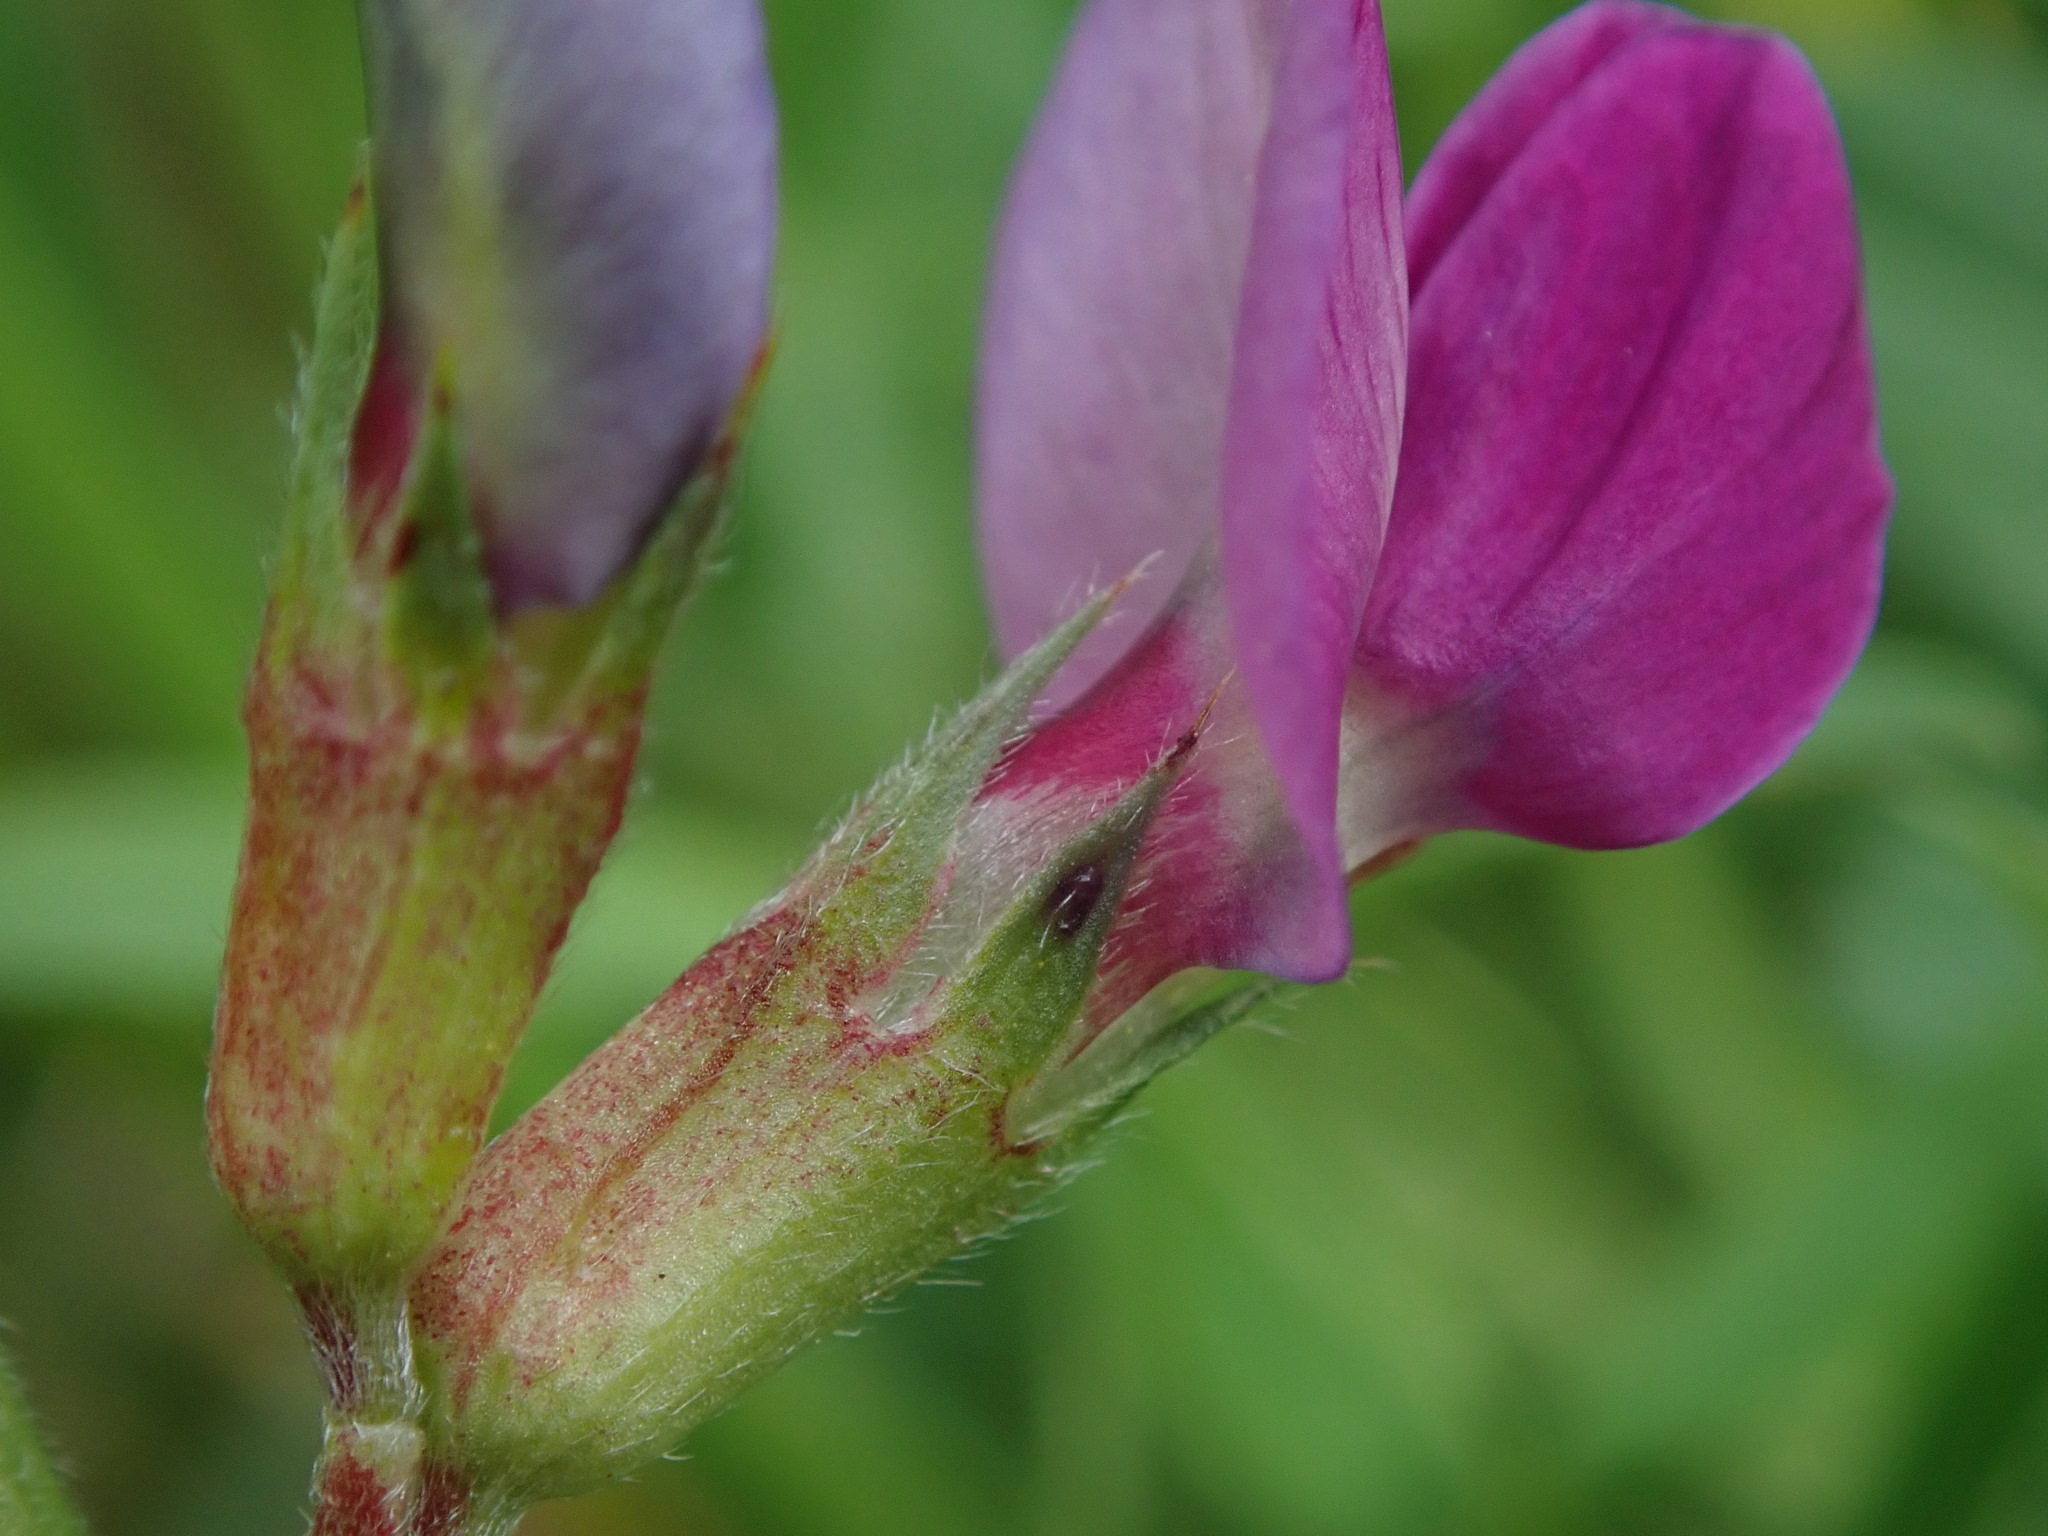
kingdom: Plantae
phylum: Tracheophyta
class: Magnoliopsida
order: Fabales
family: Fabaceae
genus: Vicia
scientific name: Vicia sativa
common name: Garden vetch
